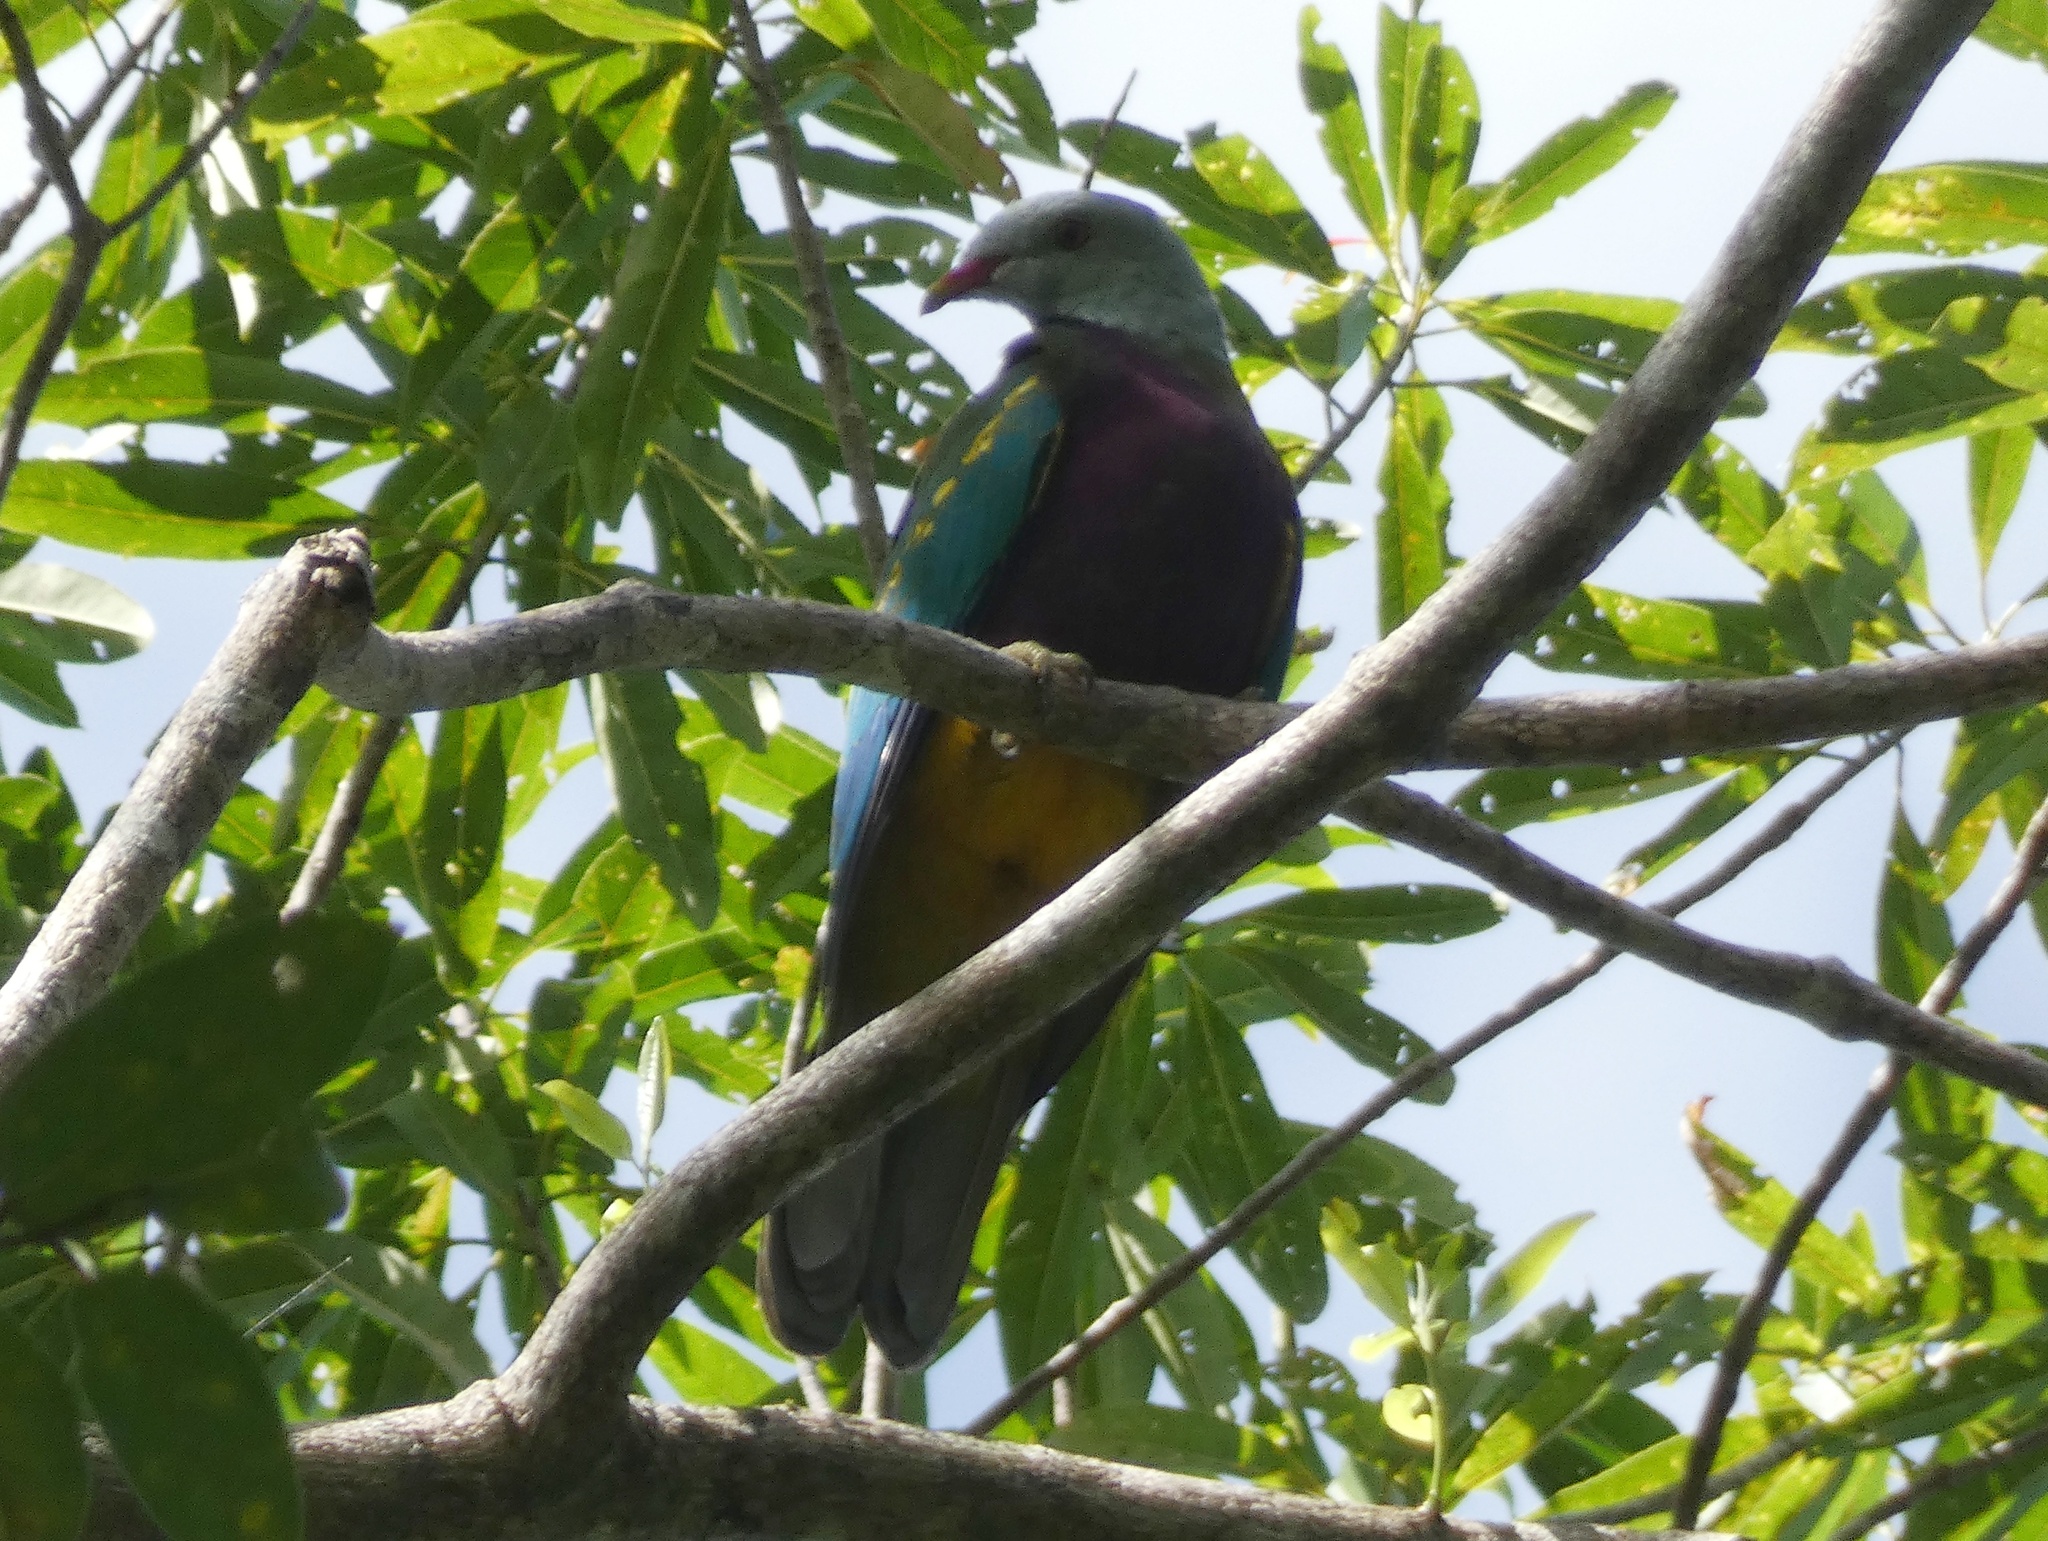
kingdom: Animalia
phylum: Chordata
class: Aves
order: Columbiformes
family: Columbidae
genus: Ptilinopus
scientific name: Ptilinopus magnificus
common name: Wompoo fruit dove
